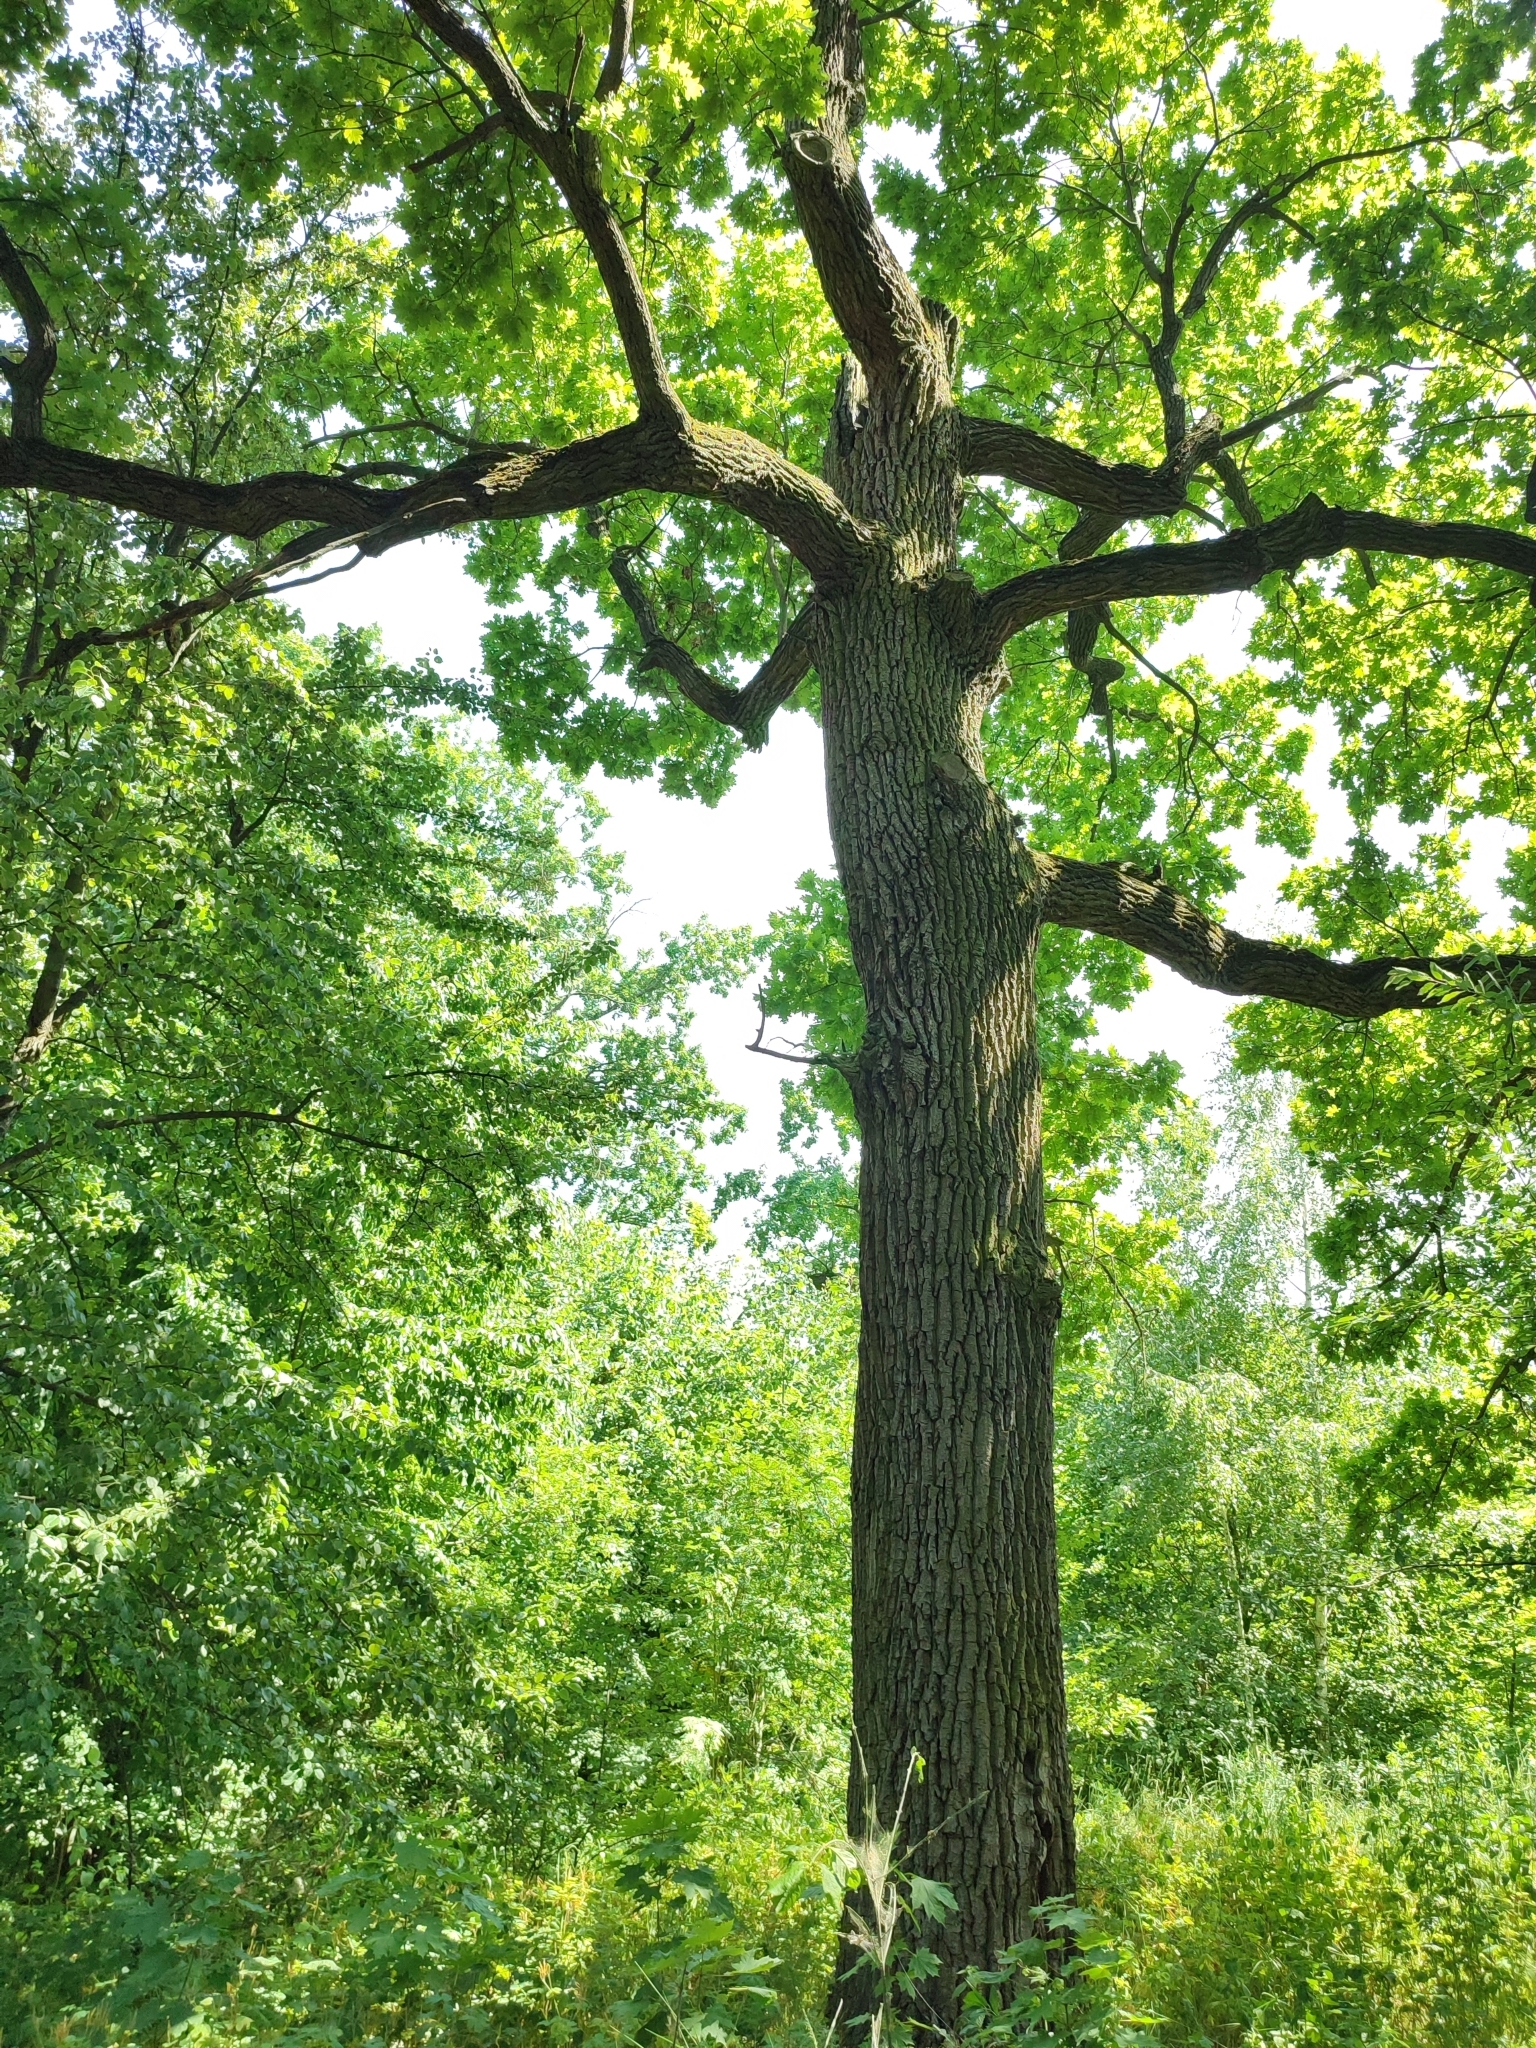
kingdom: Plantae
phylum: Tracheophyta
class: Magnoliopsida
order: Fagales
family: Fagaceae
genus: Quercus
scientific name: Quercus robur
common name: Pedunculate oak
